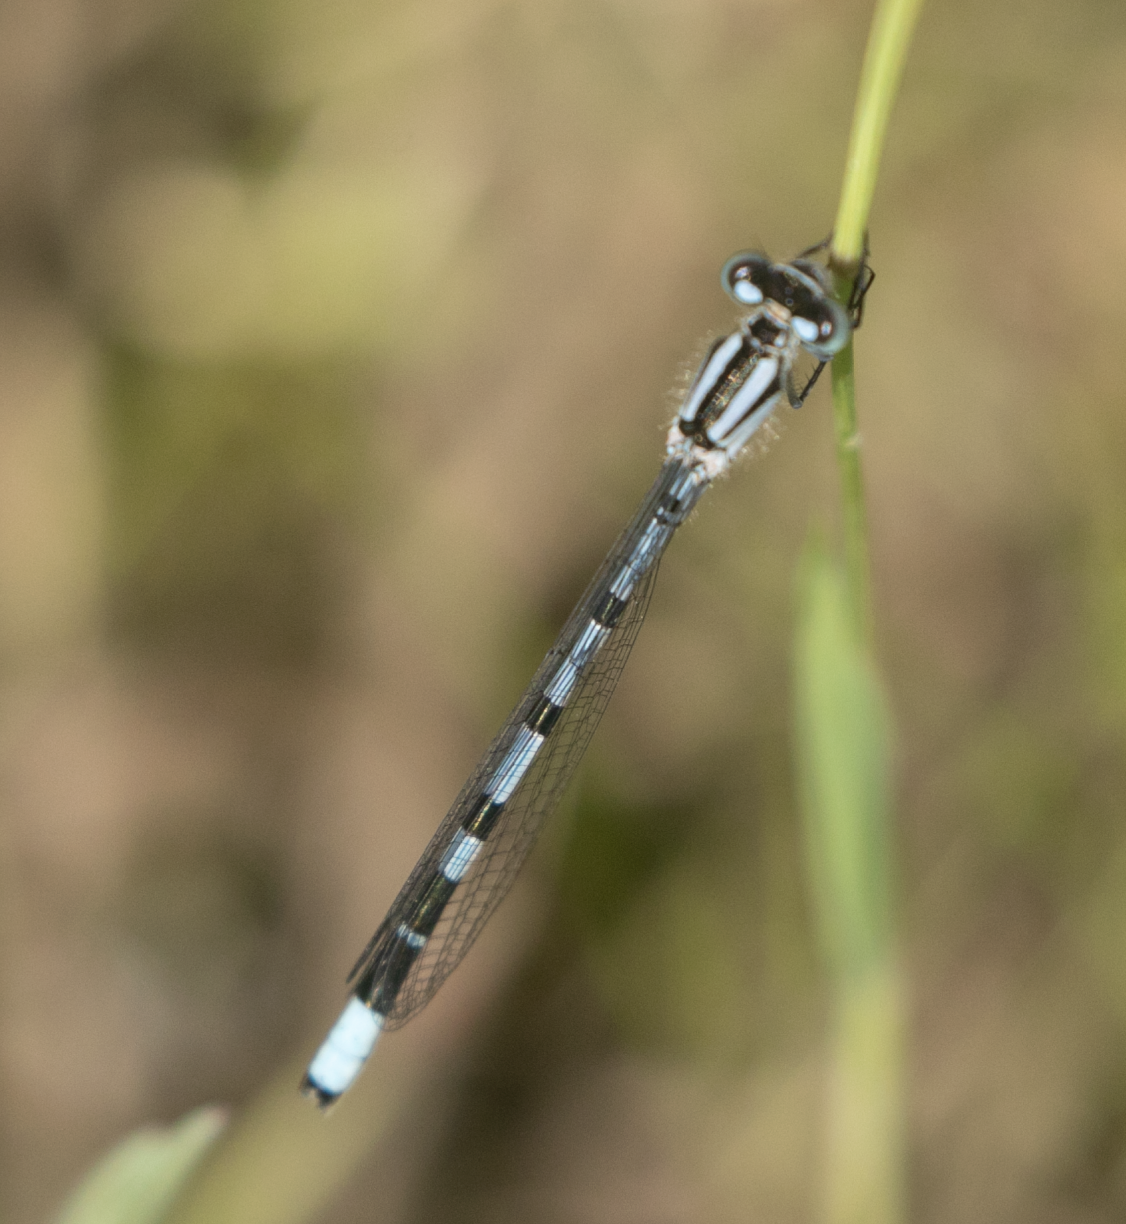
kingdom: Animalia
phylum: Arthropoda
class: Insecta
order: Odonata
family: Coenagrionidae
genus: Enallagma
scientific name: Enallagma cyathigerum
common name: Common blue damselfly
